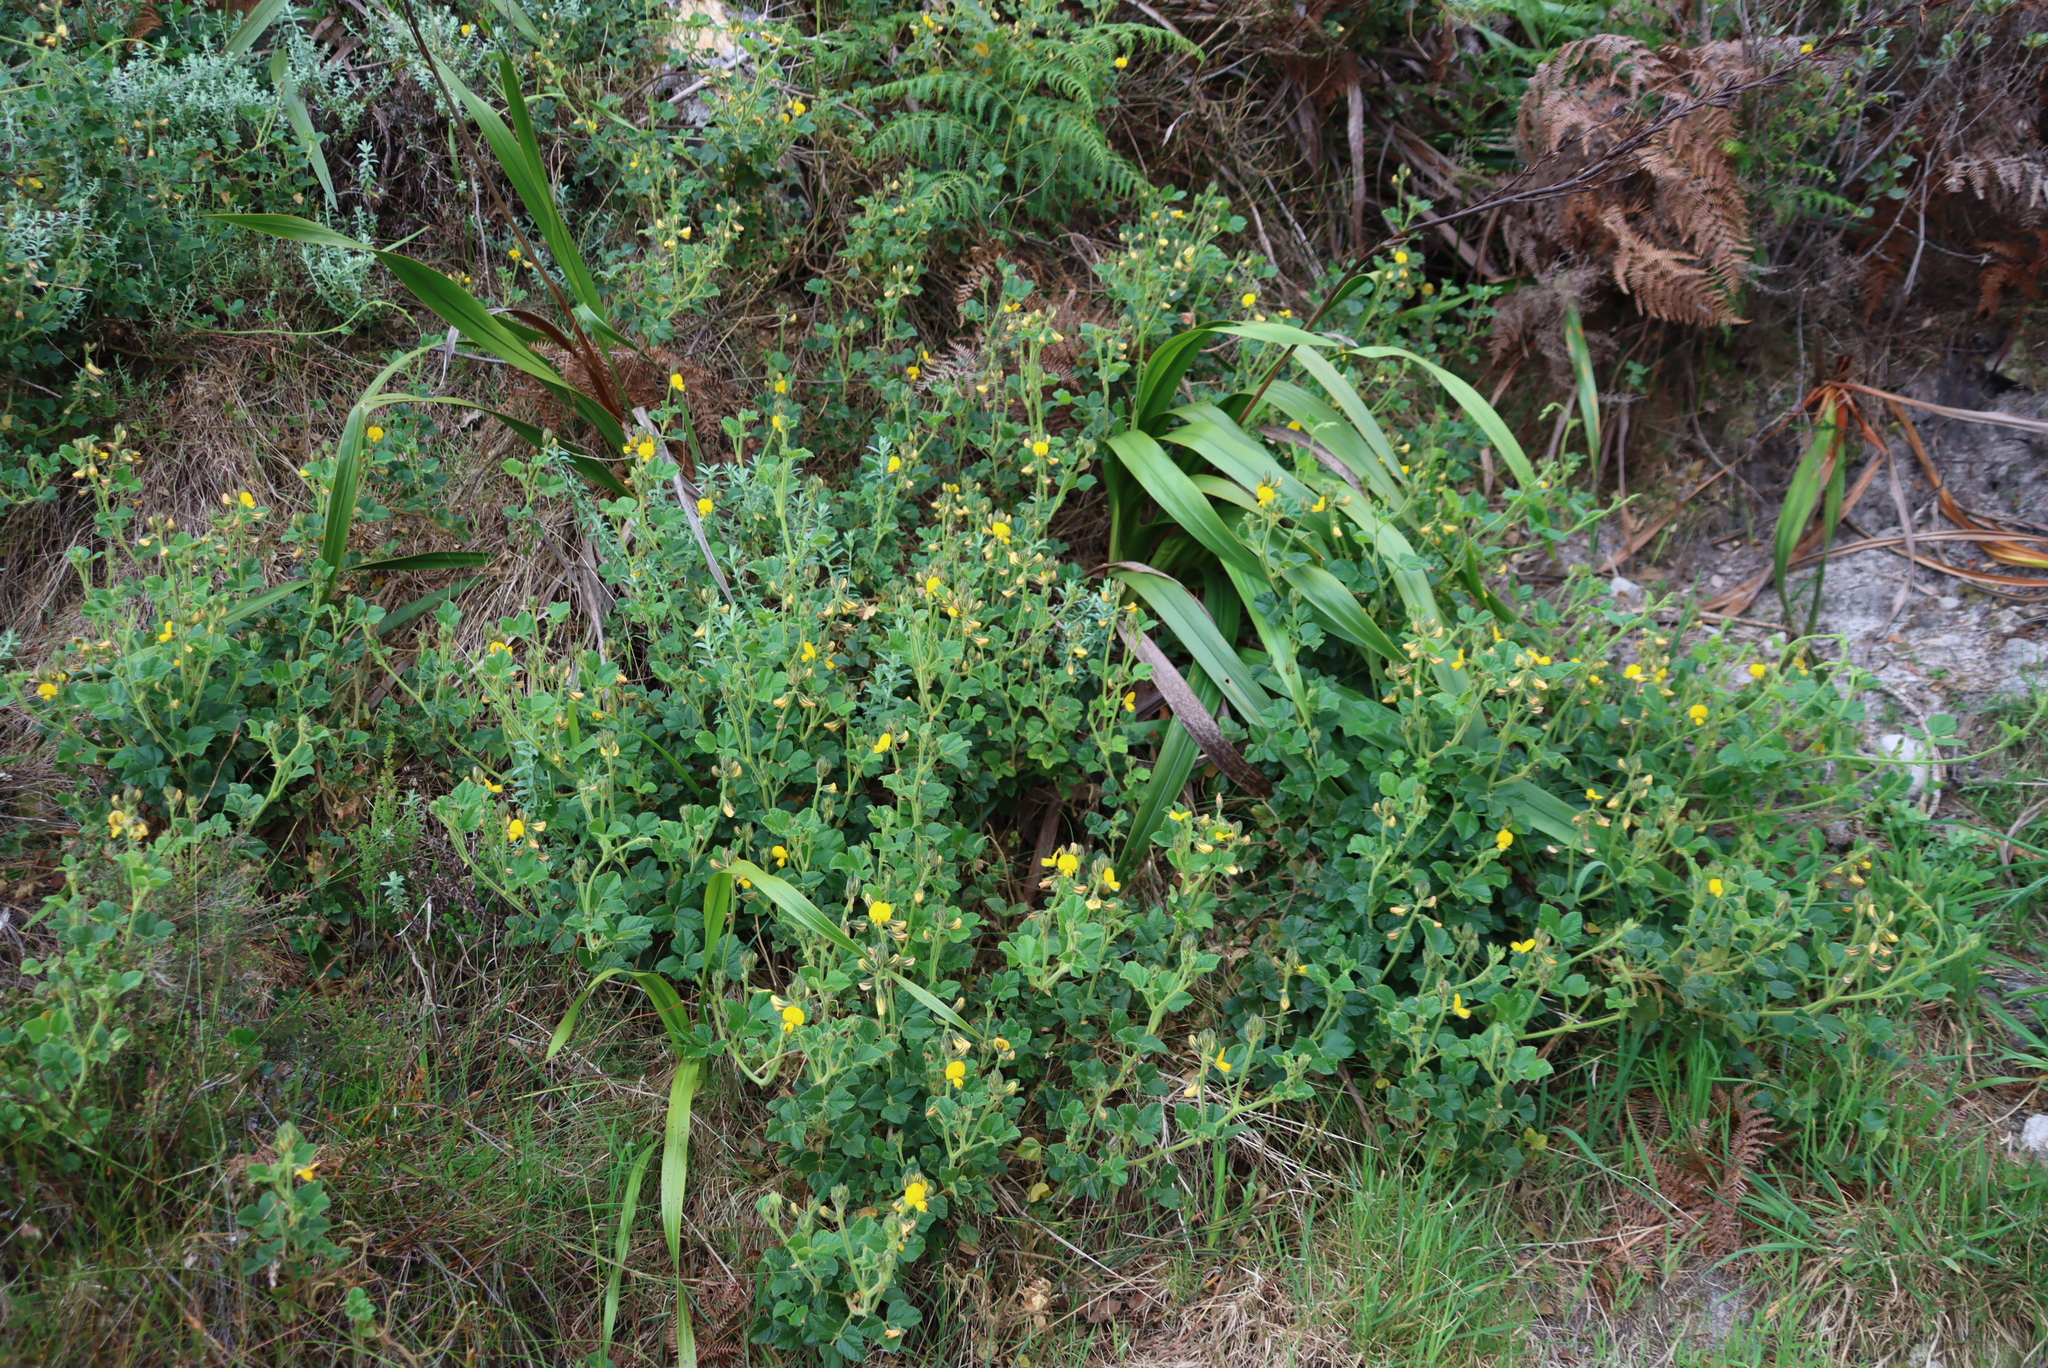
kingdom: Plantae
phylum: Tracheophyta
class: Magnoliopsida
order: Fabales
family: Fabaceae
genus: Bolusafra
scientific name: Bolusafra bituminosa
